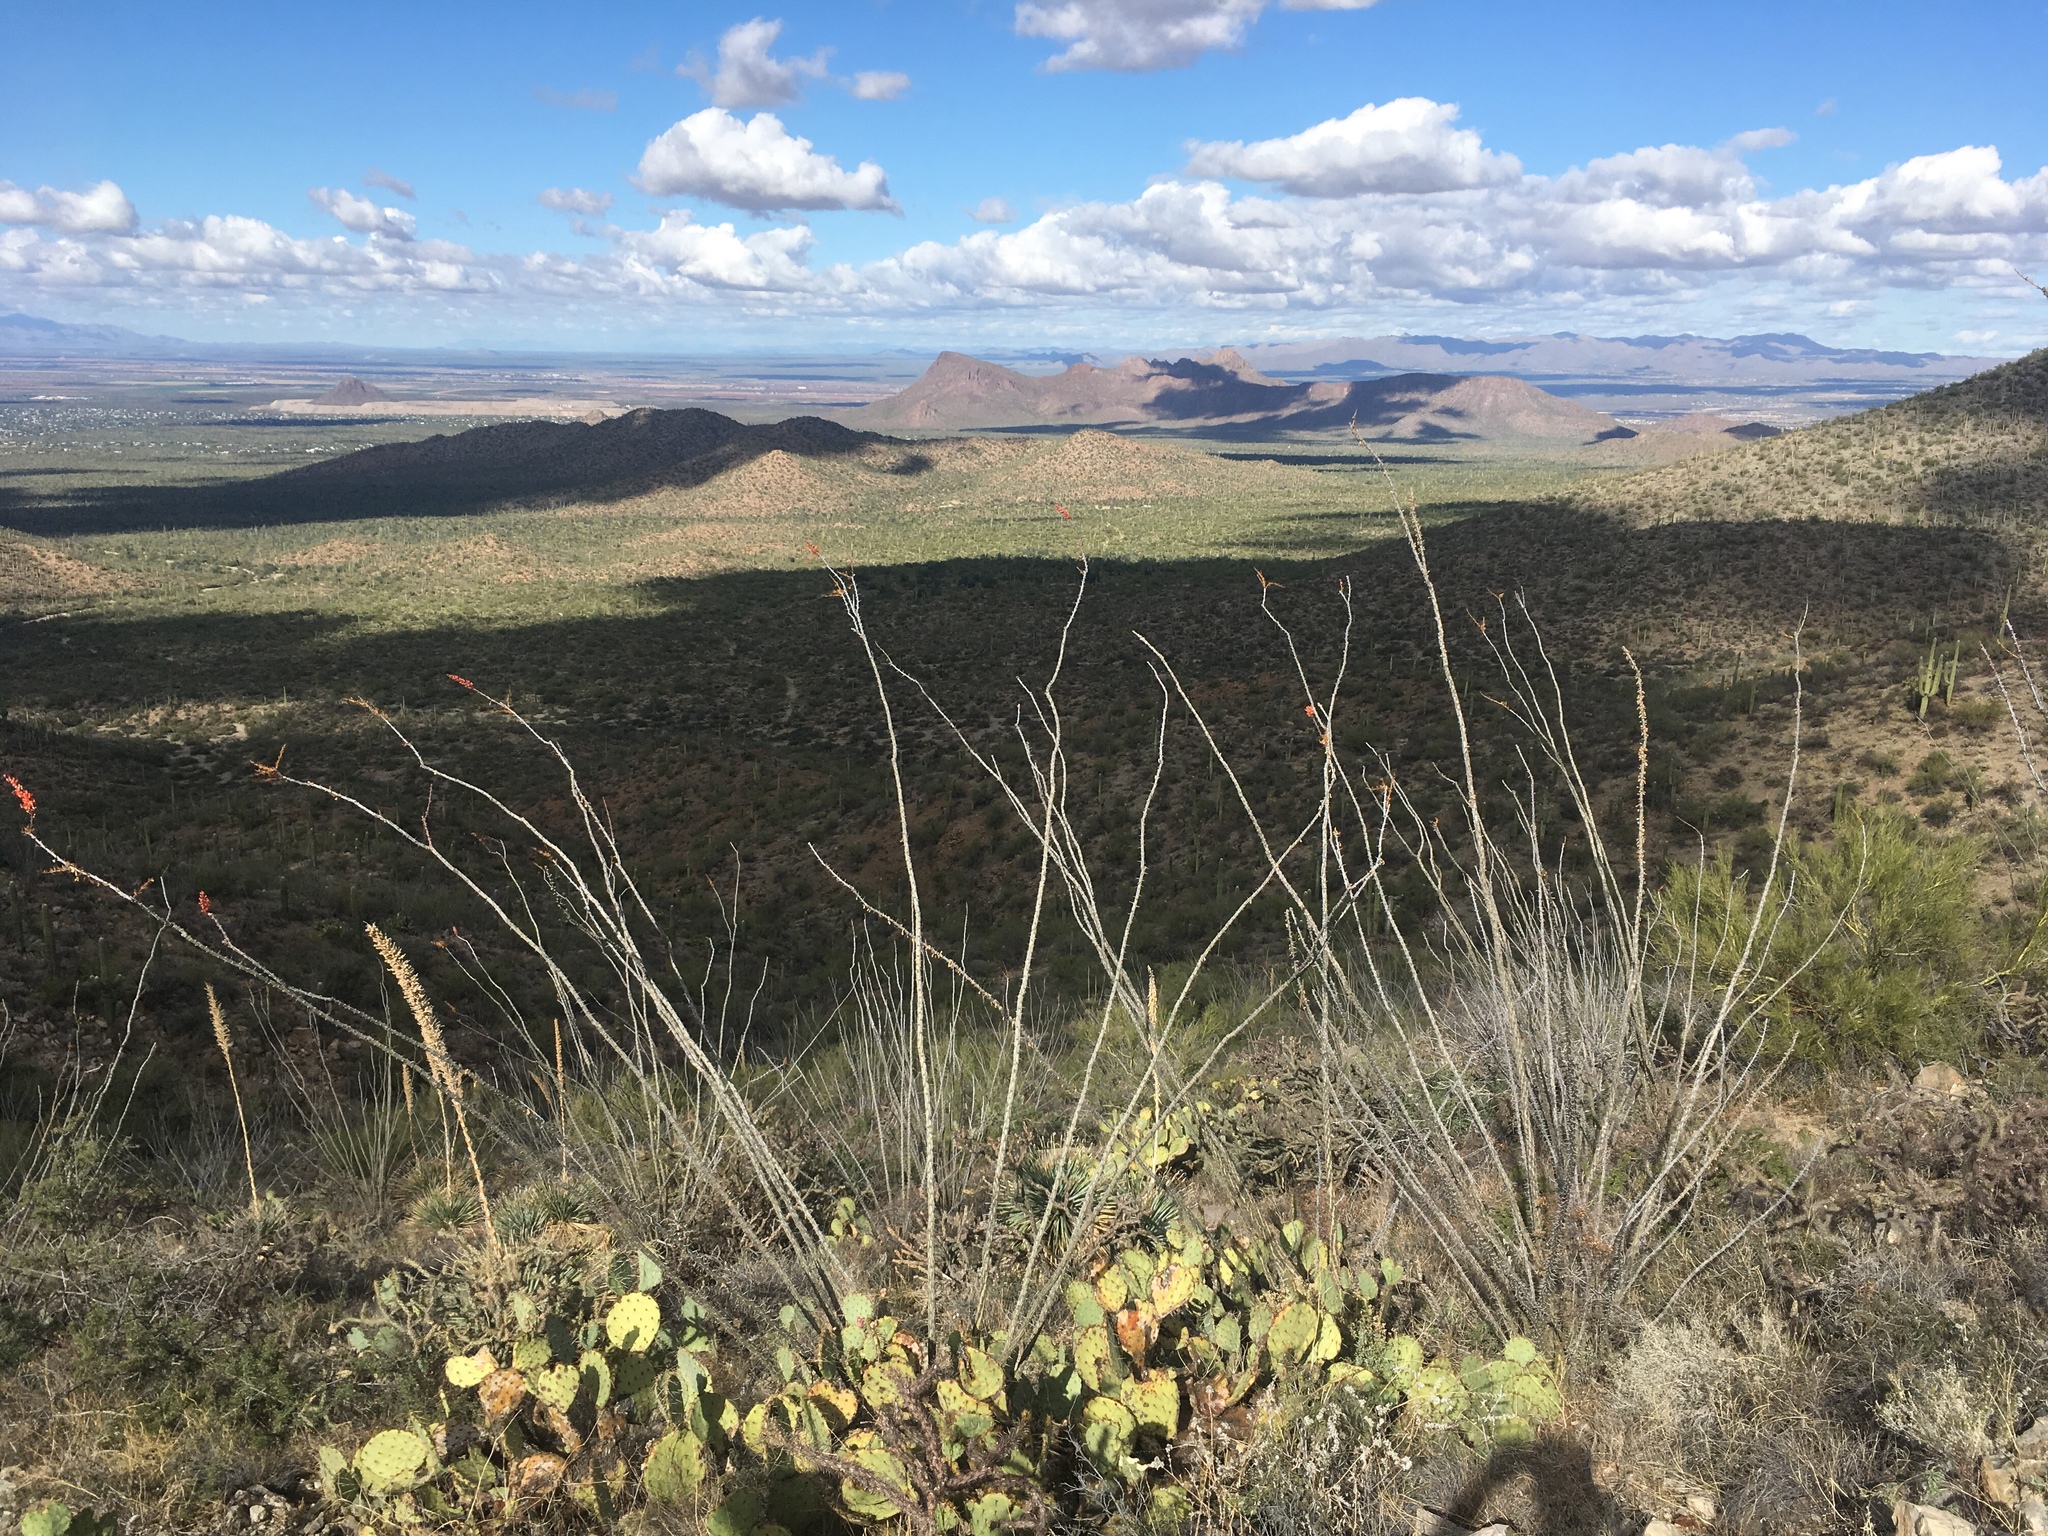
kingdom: Plantae
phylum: Tracheophyta
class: Magnoliopsida
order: Ericales
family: Fouquieriaceae
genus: Fouquieria
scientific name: Fouquieria splendens
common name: Vine-cactus
